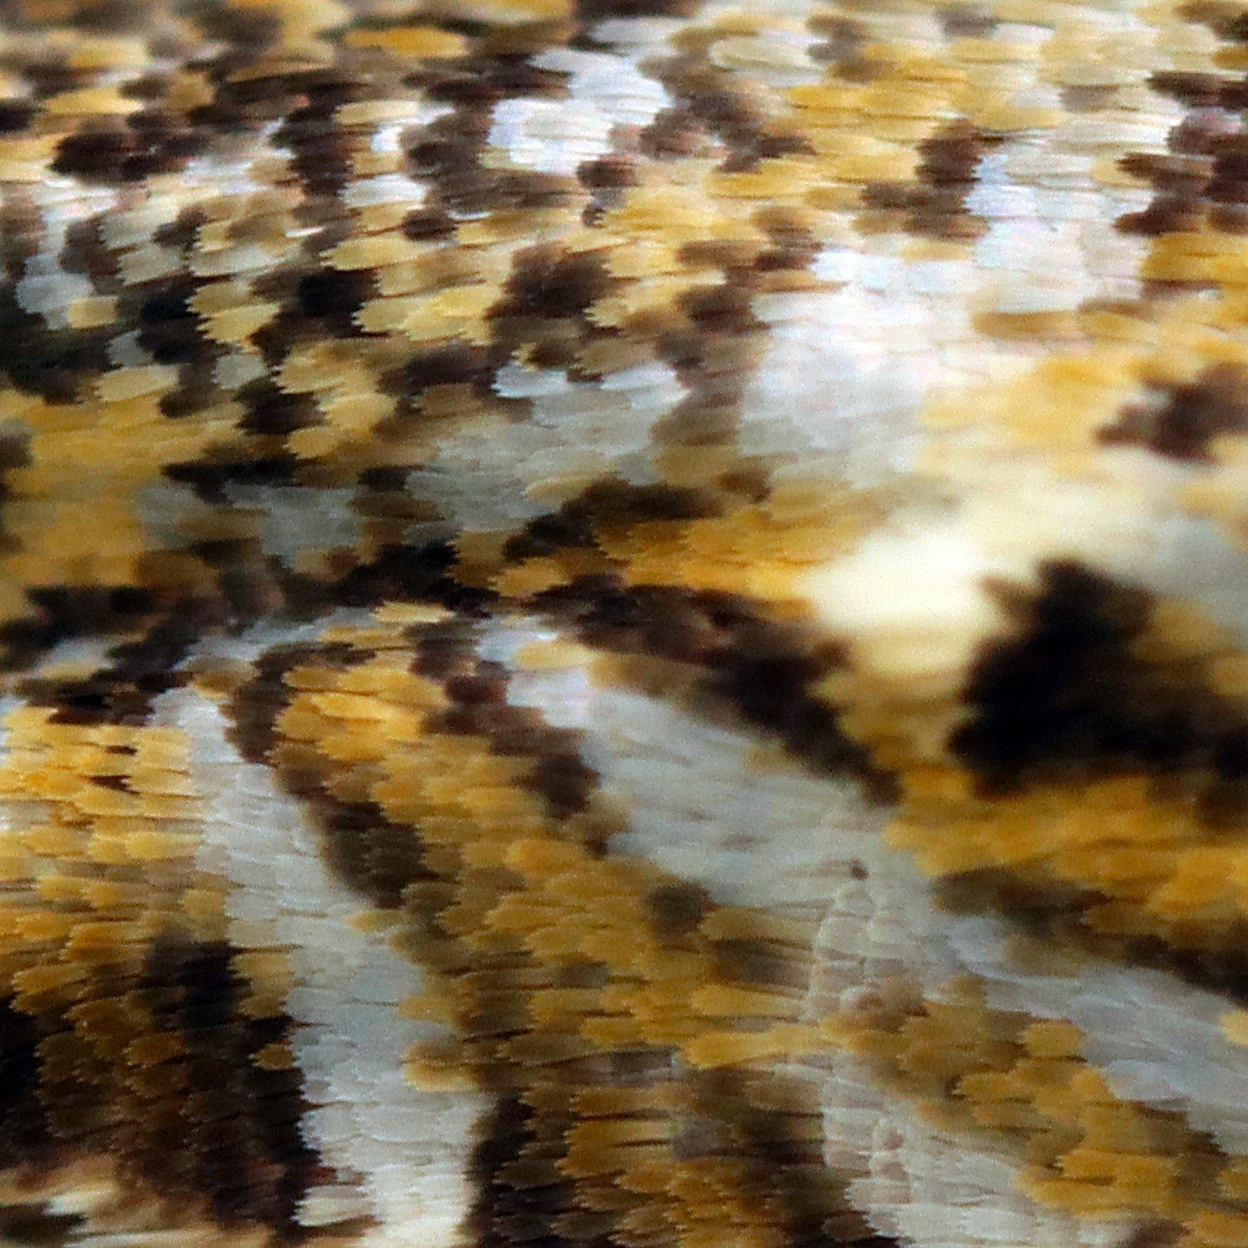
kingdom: Animalia
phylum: Arthropoda
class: Insecta
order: Lepidoptera
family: Plutellidae
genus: Doxophyrtis
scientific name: Doxophyrtis hydrocosma
